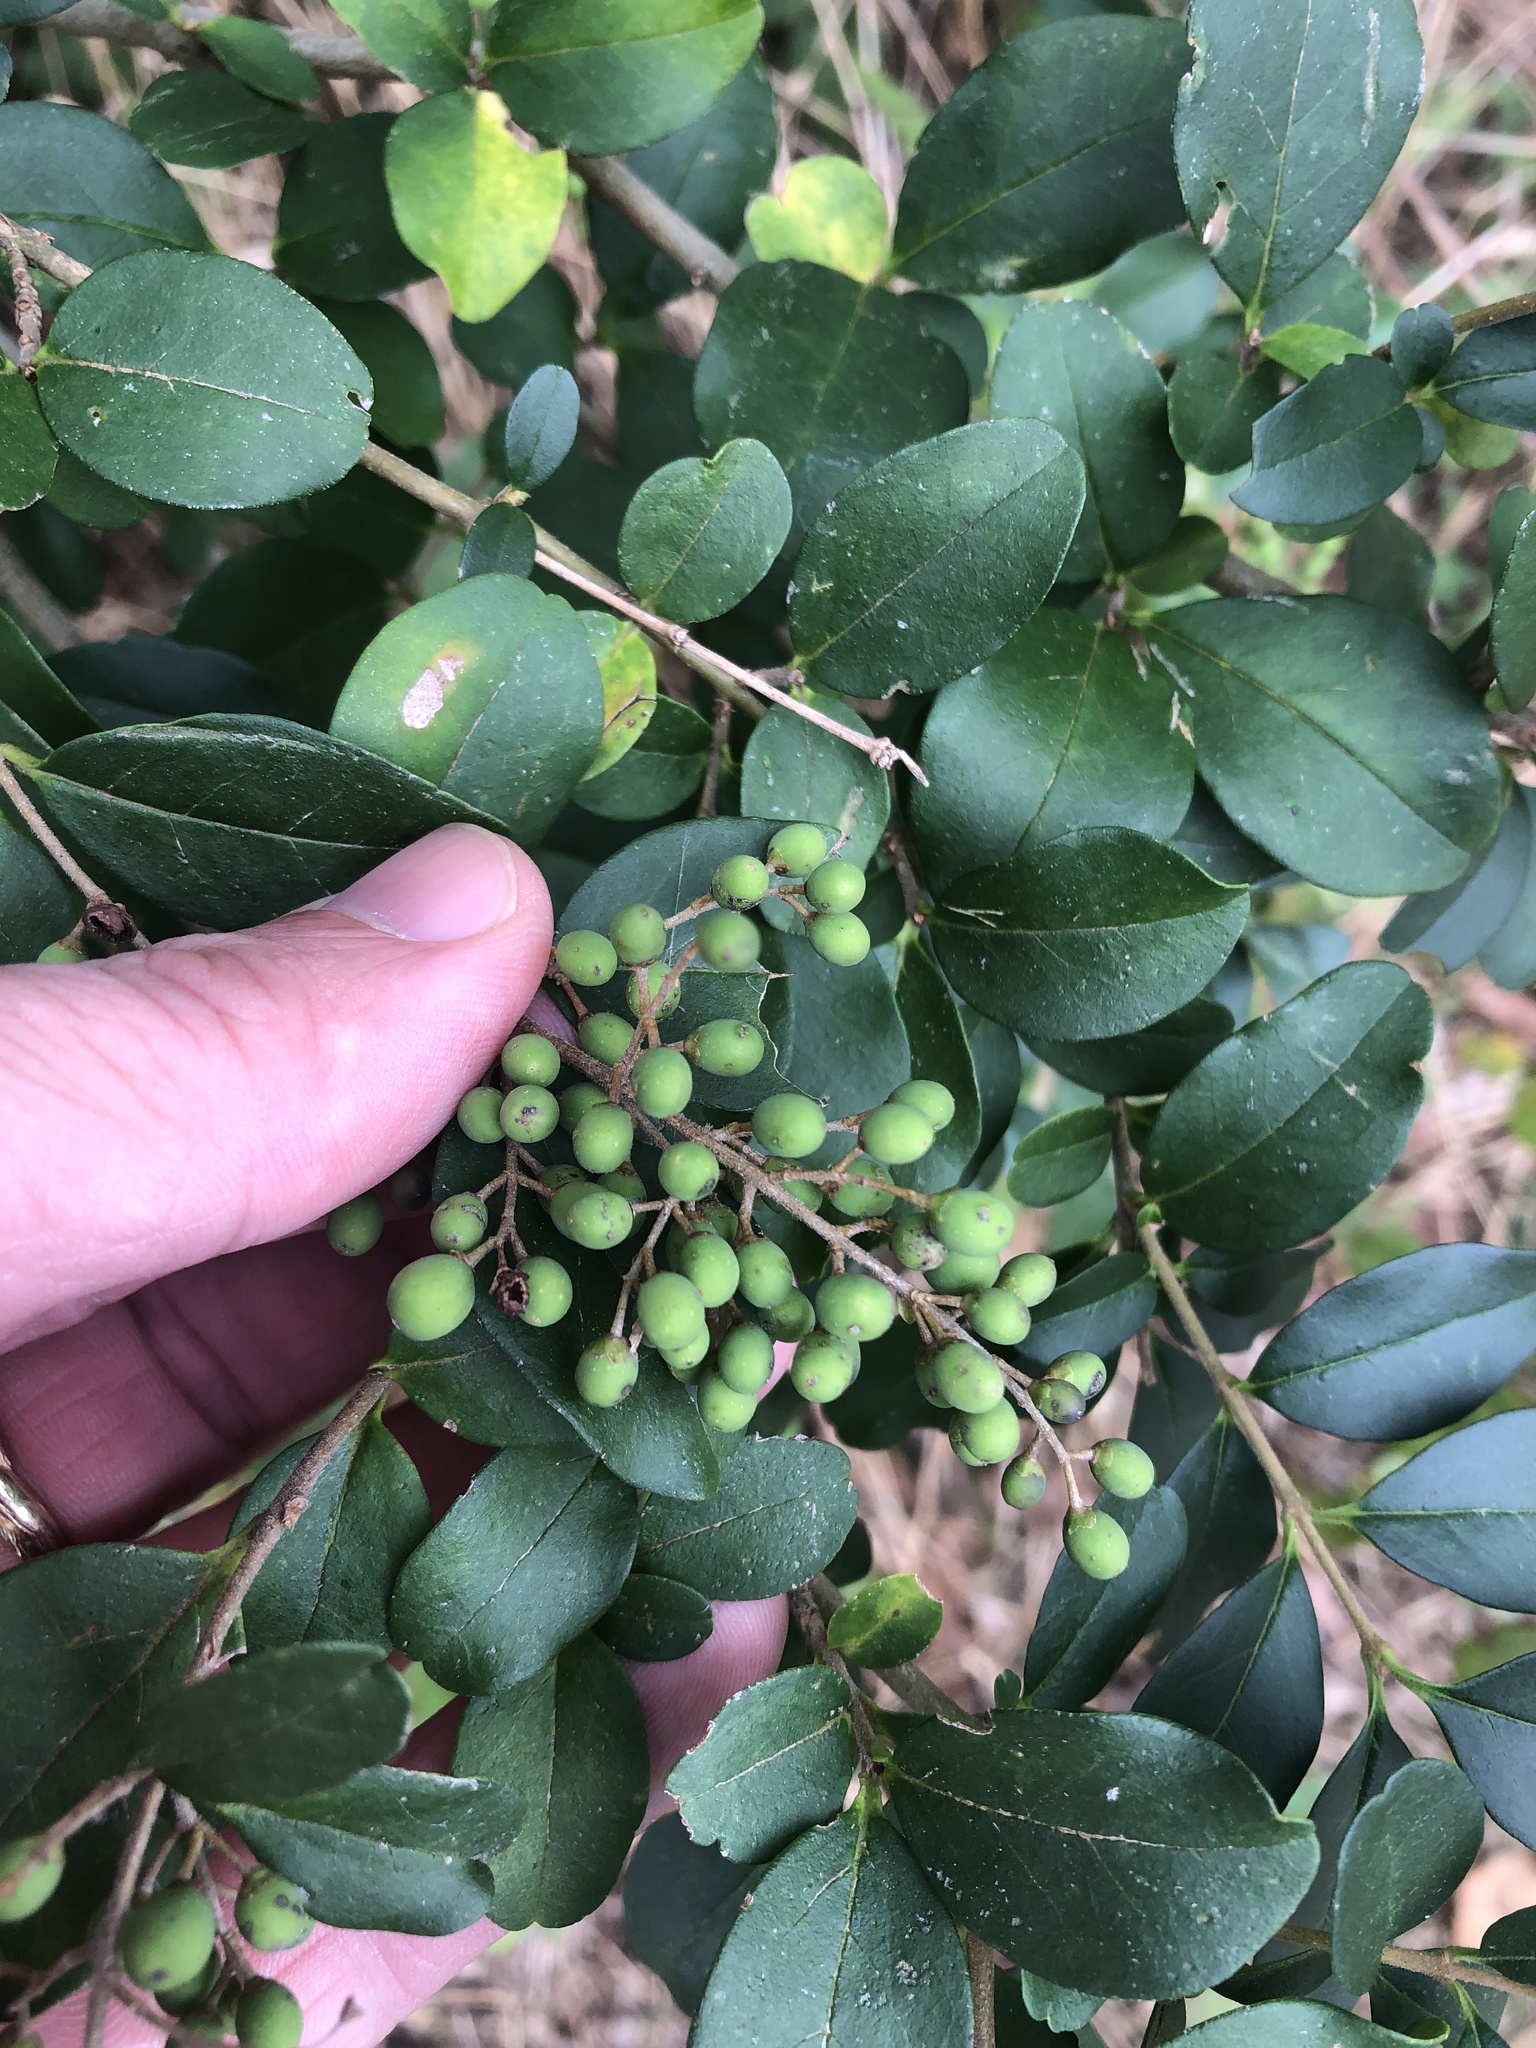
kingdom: Plantae
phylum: Tracheophyta
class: Magnoliopsida
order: Lamiales
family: Oleaceae
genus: Ligustrum
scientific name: Ligustrum sinense
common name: Chinese privet
